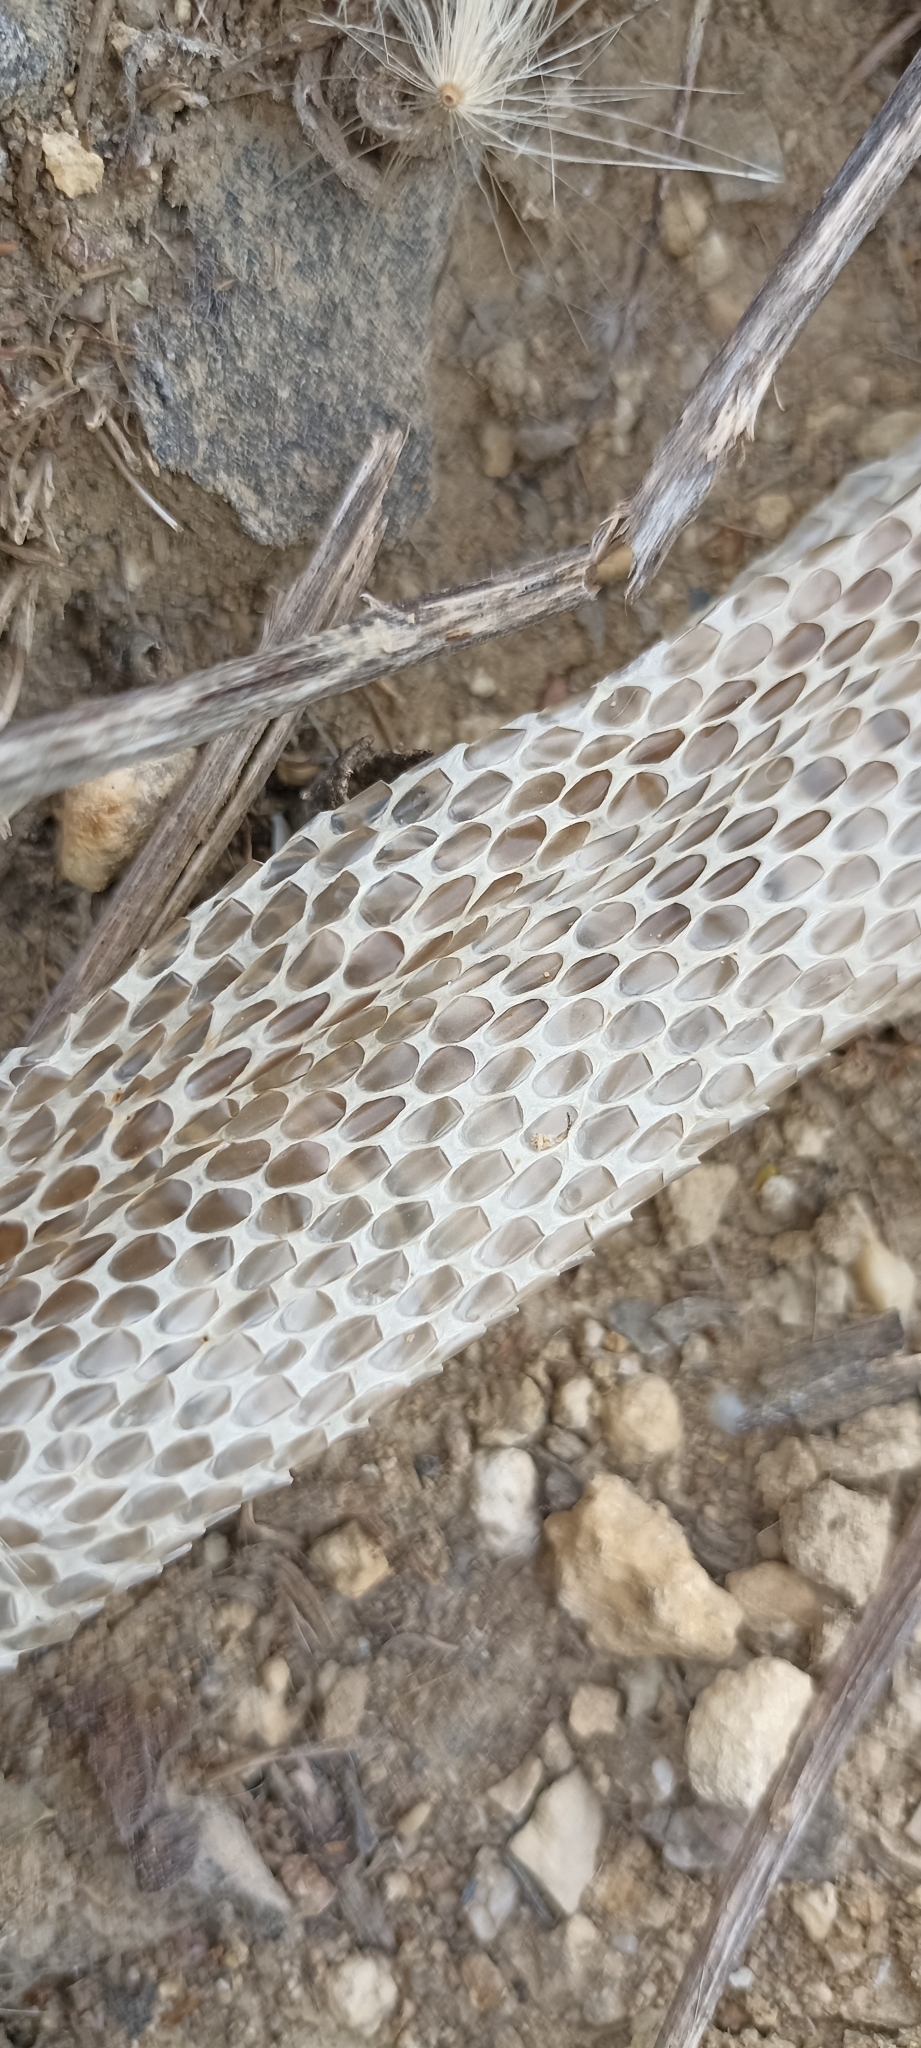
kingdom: Animalia
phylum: Chordata
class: Squamata
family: Colubridae
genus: Zamenis
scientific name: Zamenis scalaris
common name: Ladder snakes
